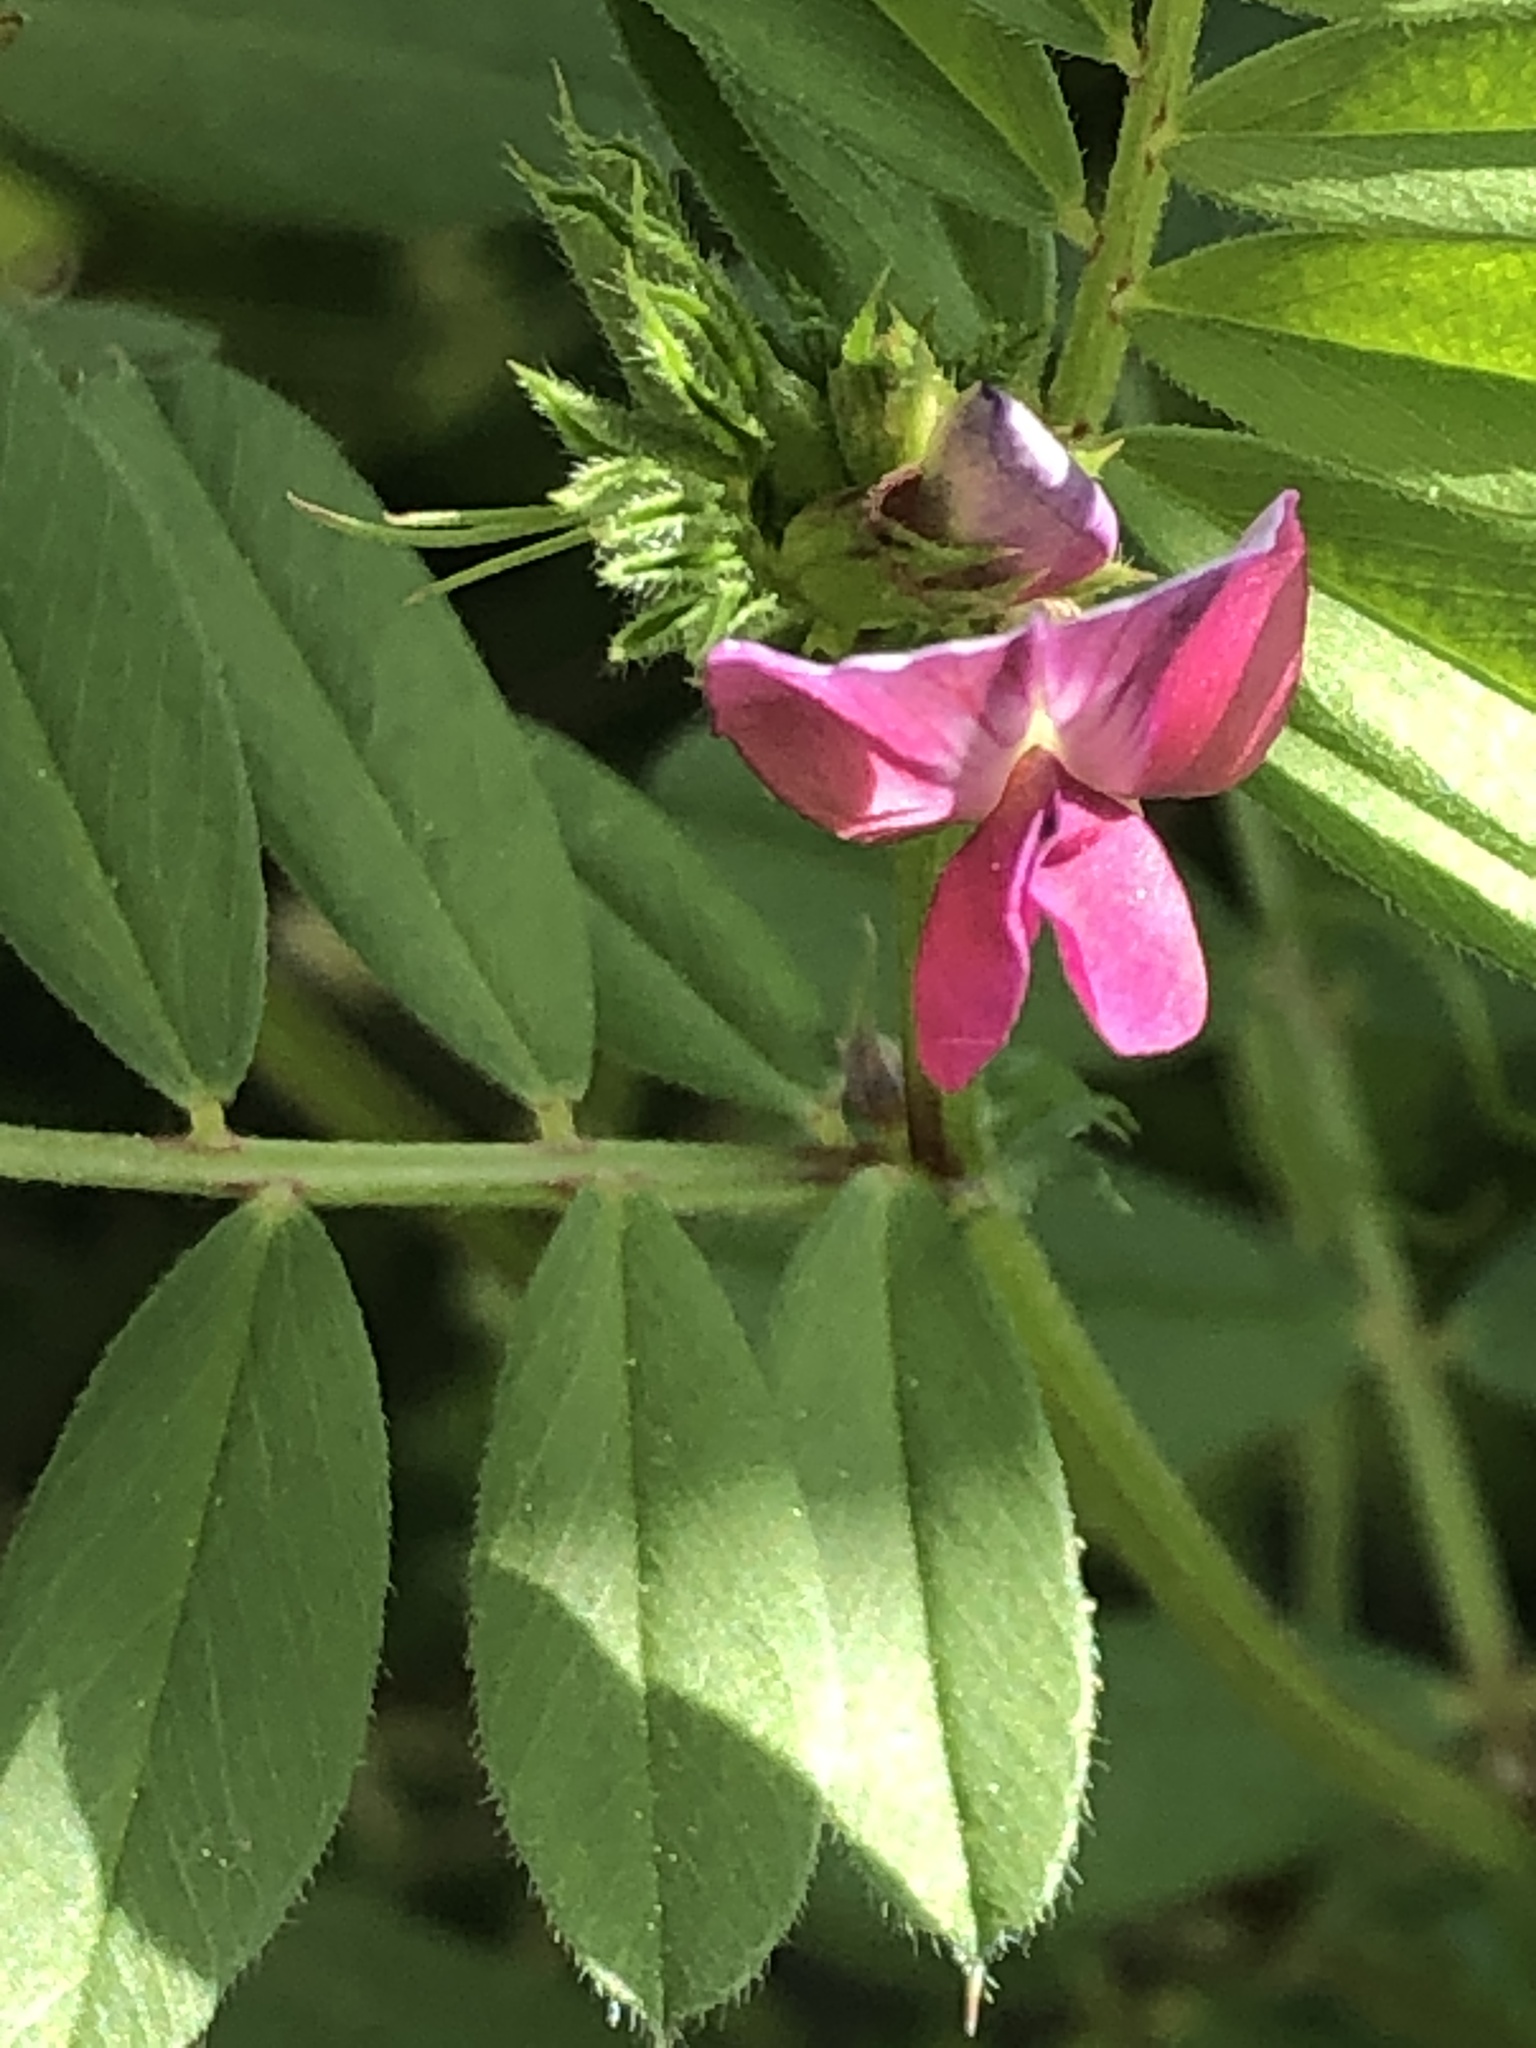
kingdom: Plantae
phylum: Tracheophyta
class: Magnoliopsida
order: Fabales
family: Fabaceae
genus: Vicia
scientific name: Vicia sativa
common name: Garden vetch
